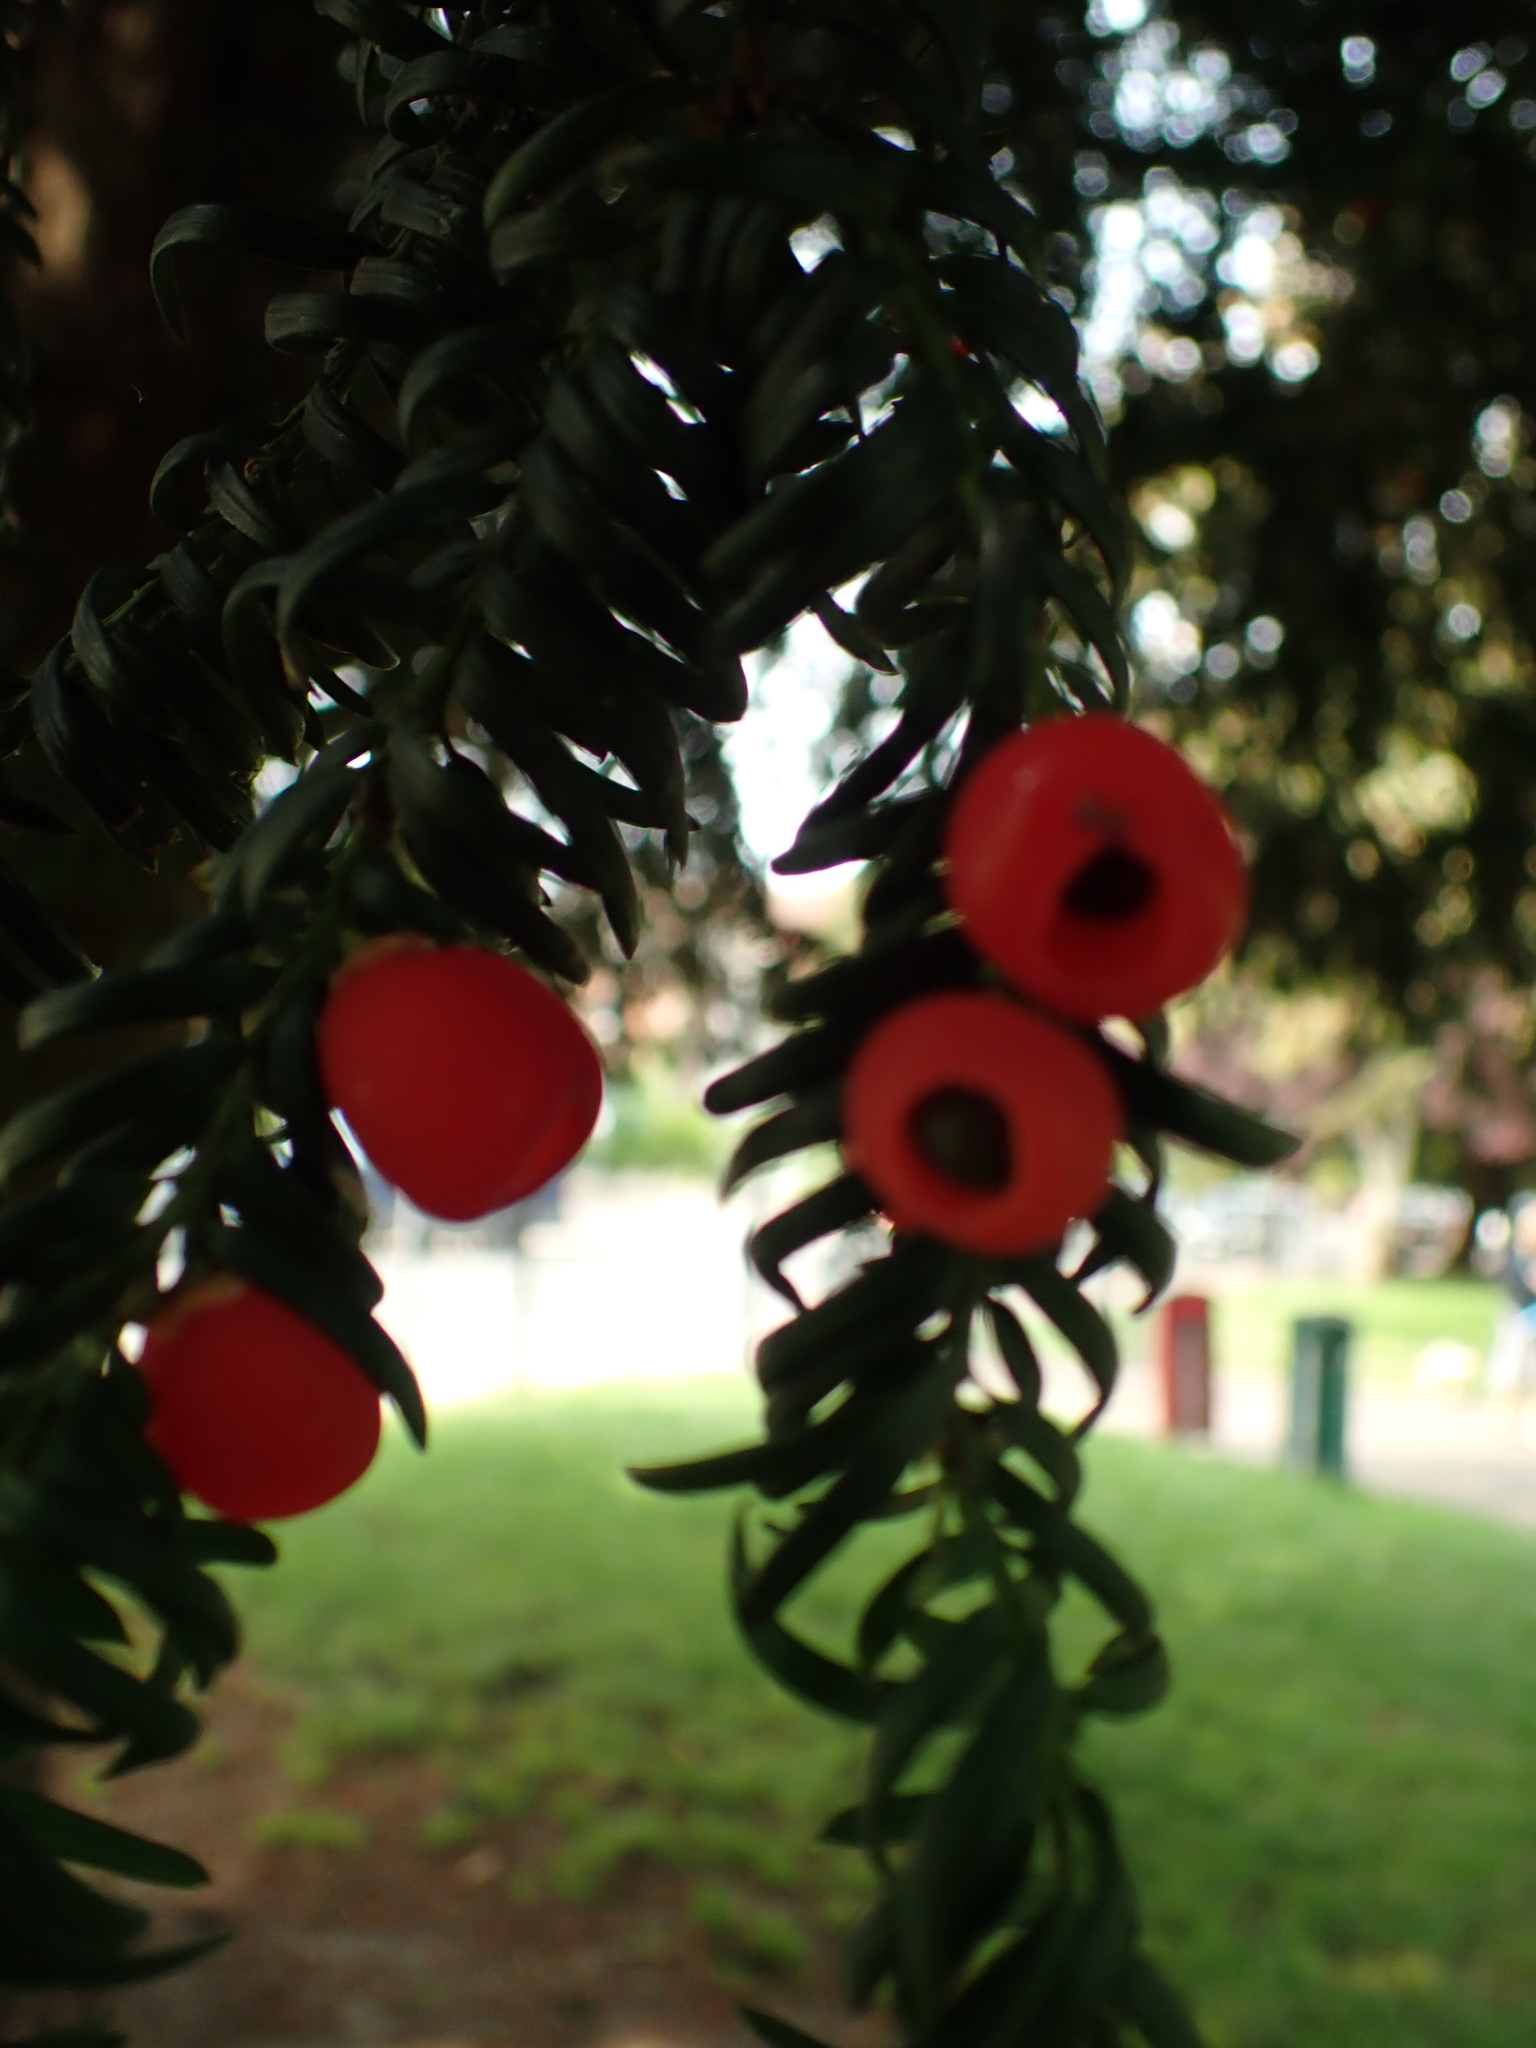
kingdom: Plantae
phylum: Tracheophyta
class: Pinopsida
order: Pinales
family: Taxaceae
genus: Taxus
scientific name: Taxus baccata
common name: Yew
